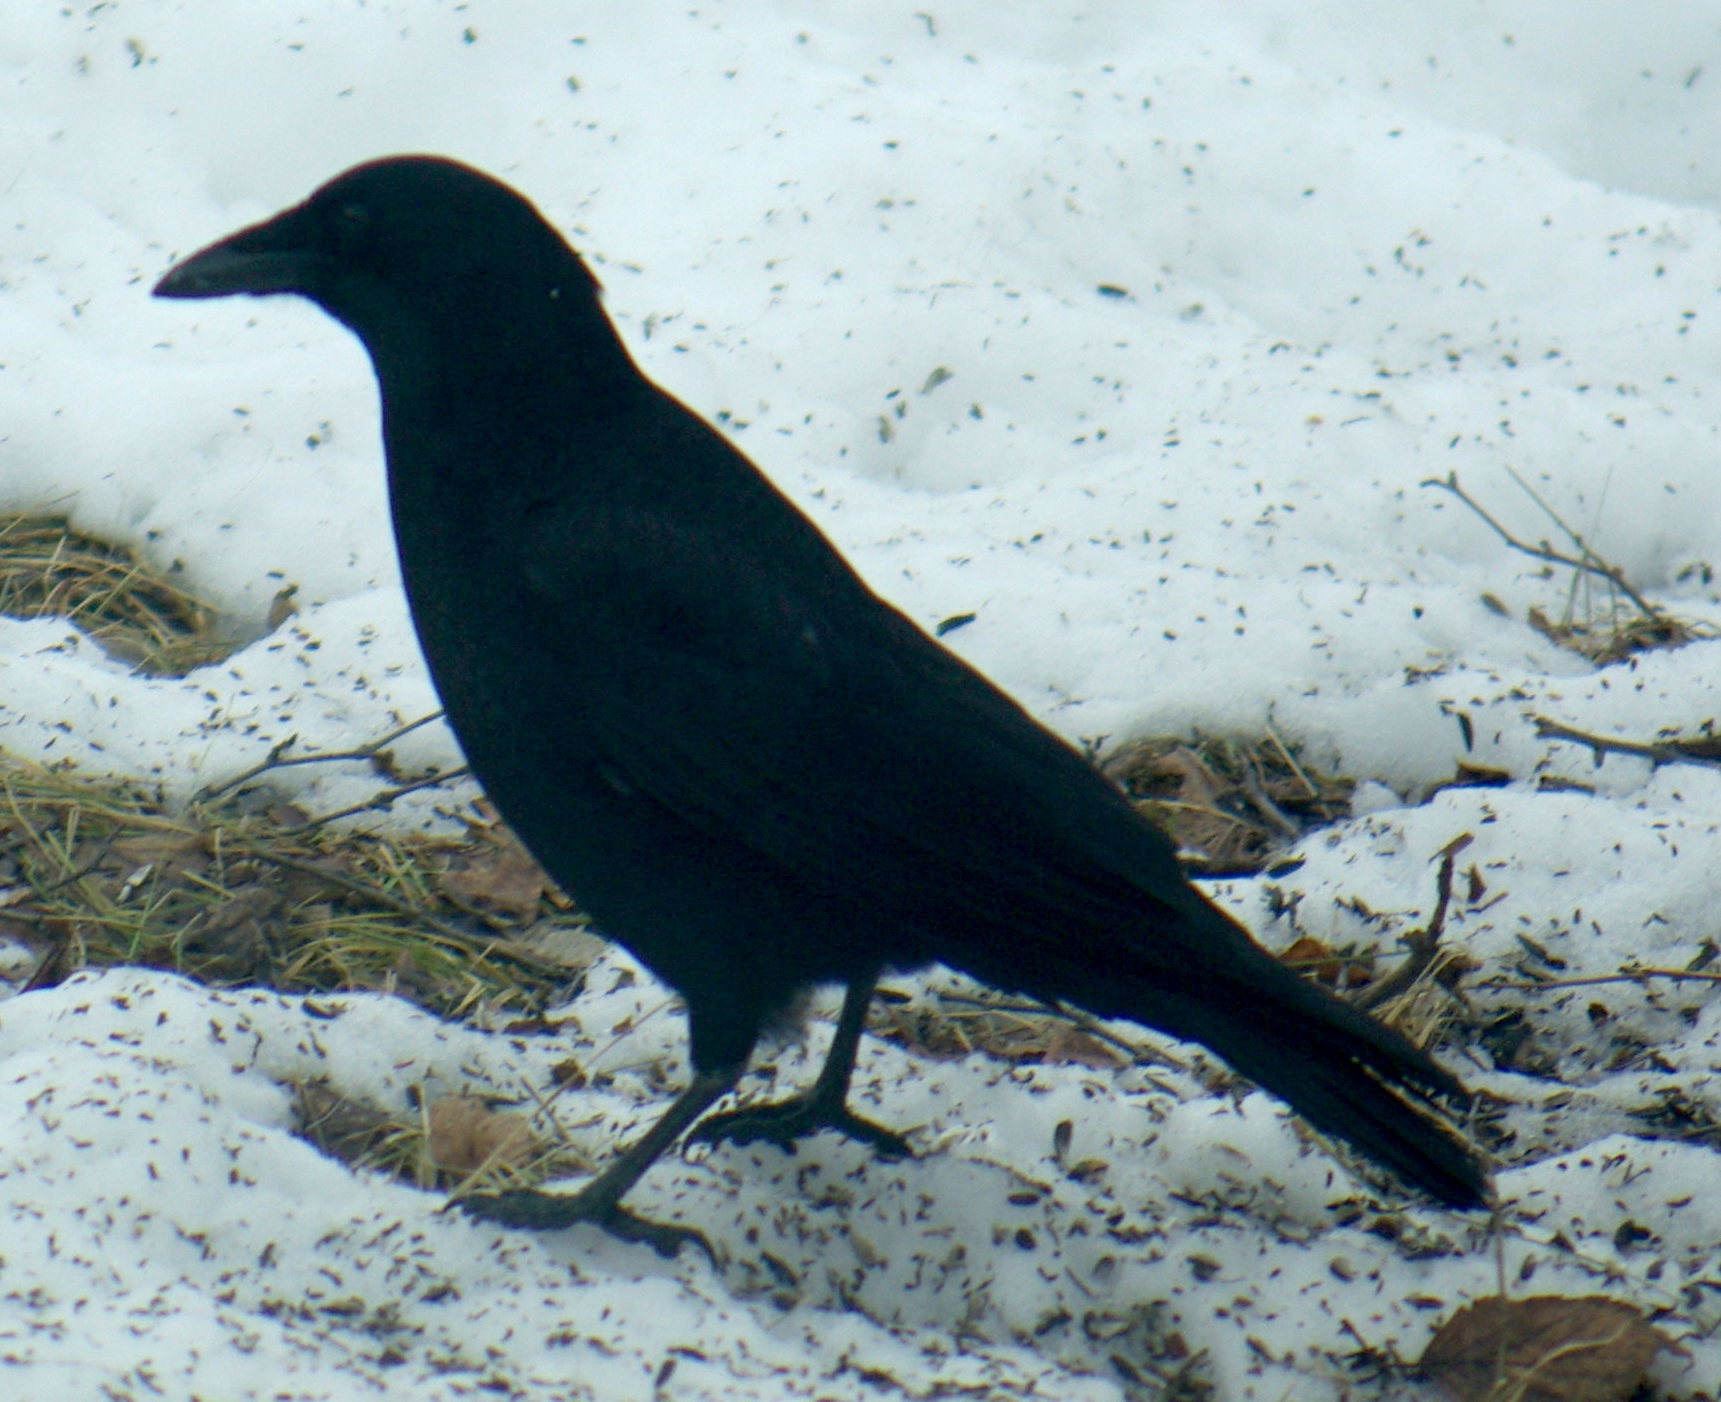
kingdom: Animalia
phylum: Chordata
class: Aves
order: Passeriformes
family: Corvidae
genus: Corvus
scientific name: Corvus brachyrhynchos
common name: American crow
